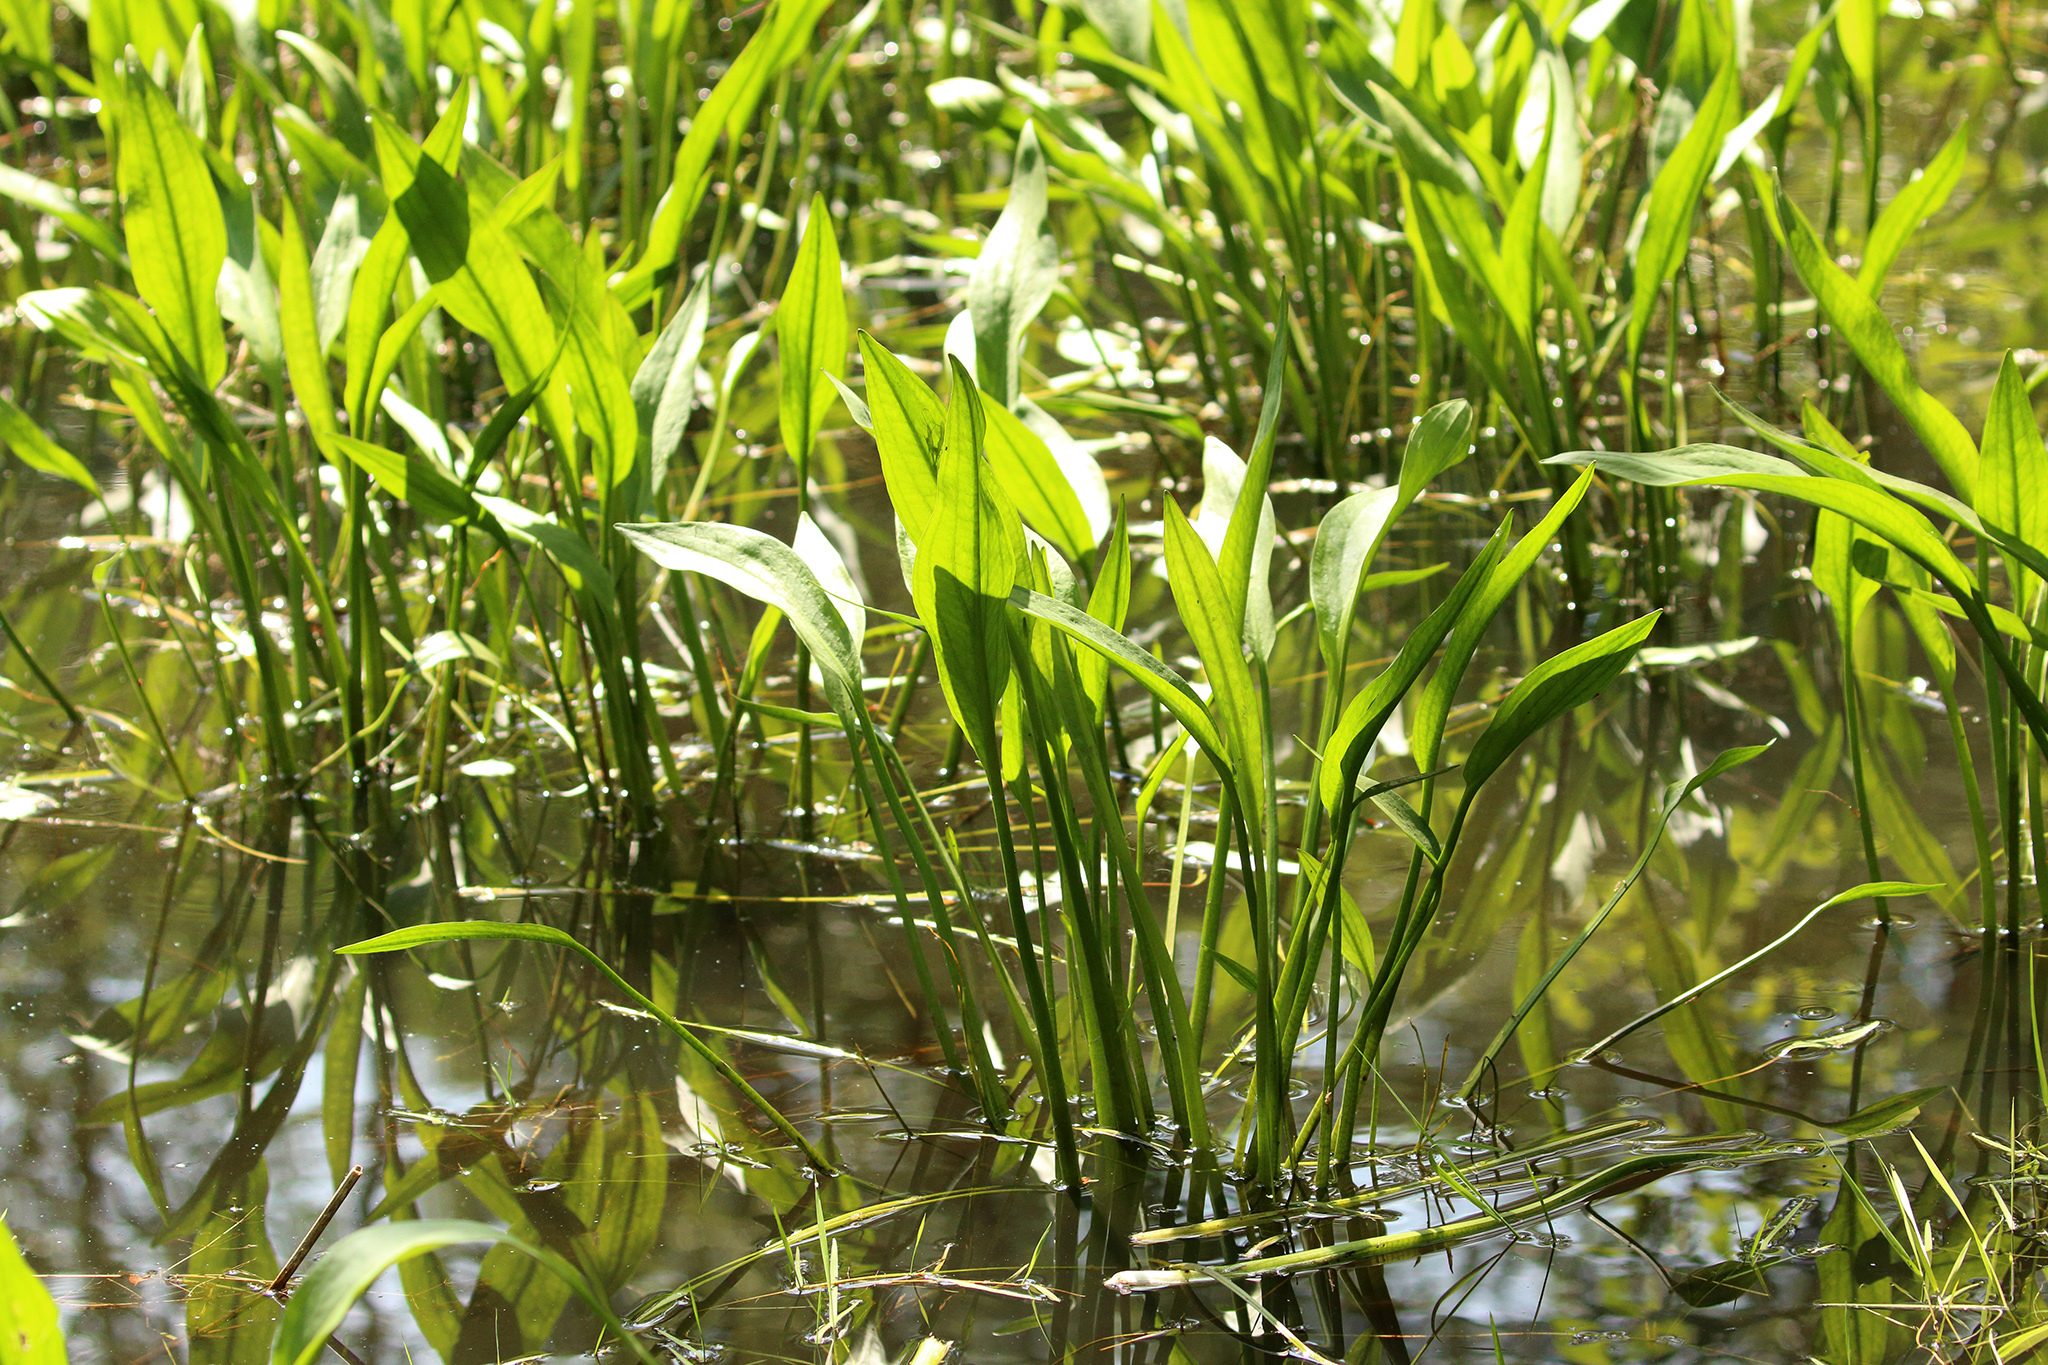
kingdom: Plantae
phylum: Tracheophyta
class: Liliopsida
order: Alismatales
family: Alismataceae
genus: Alisma
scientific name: Alisma lanceolatum
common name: Narrow-leaved water-plantain
